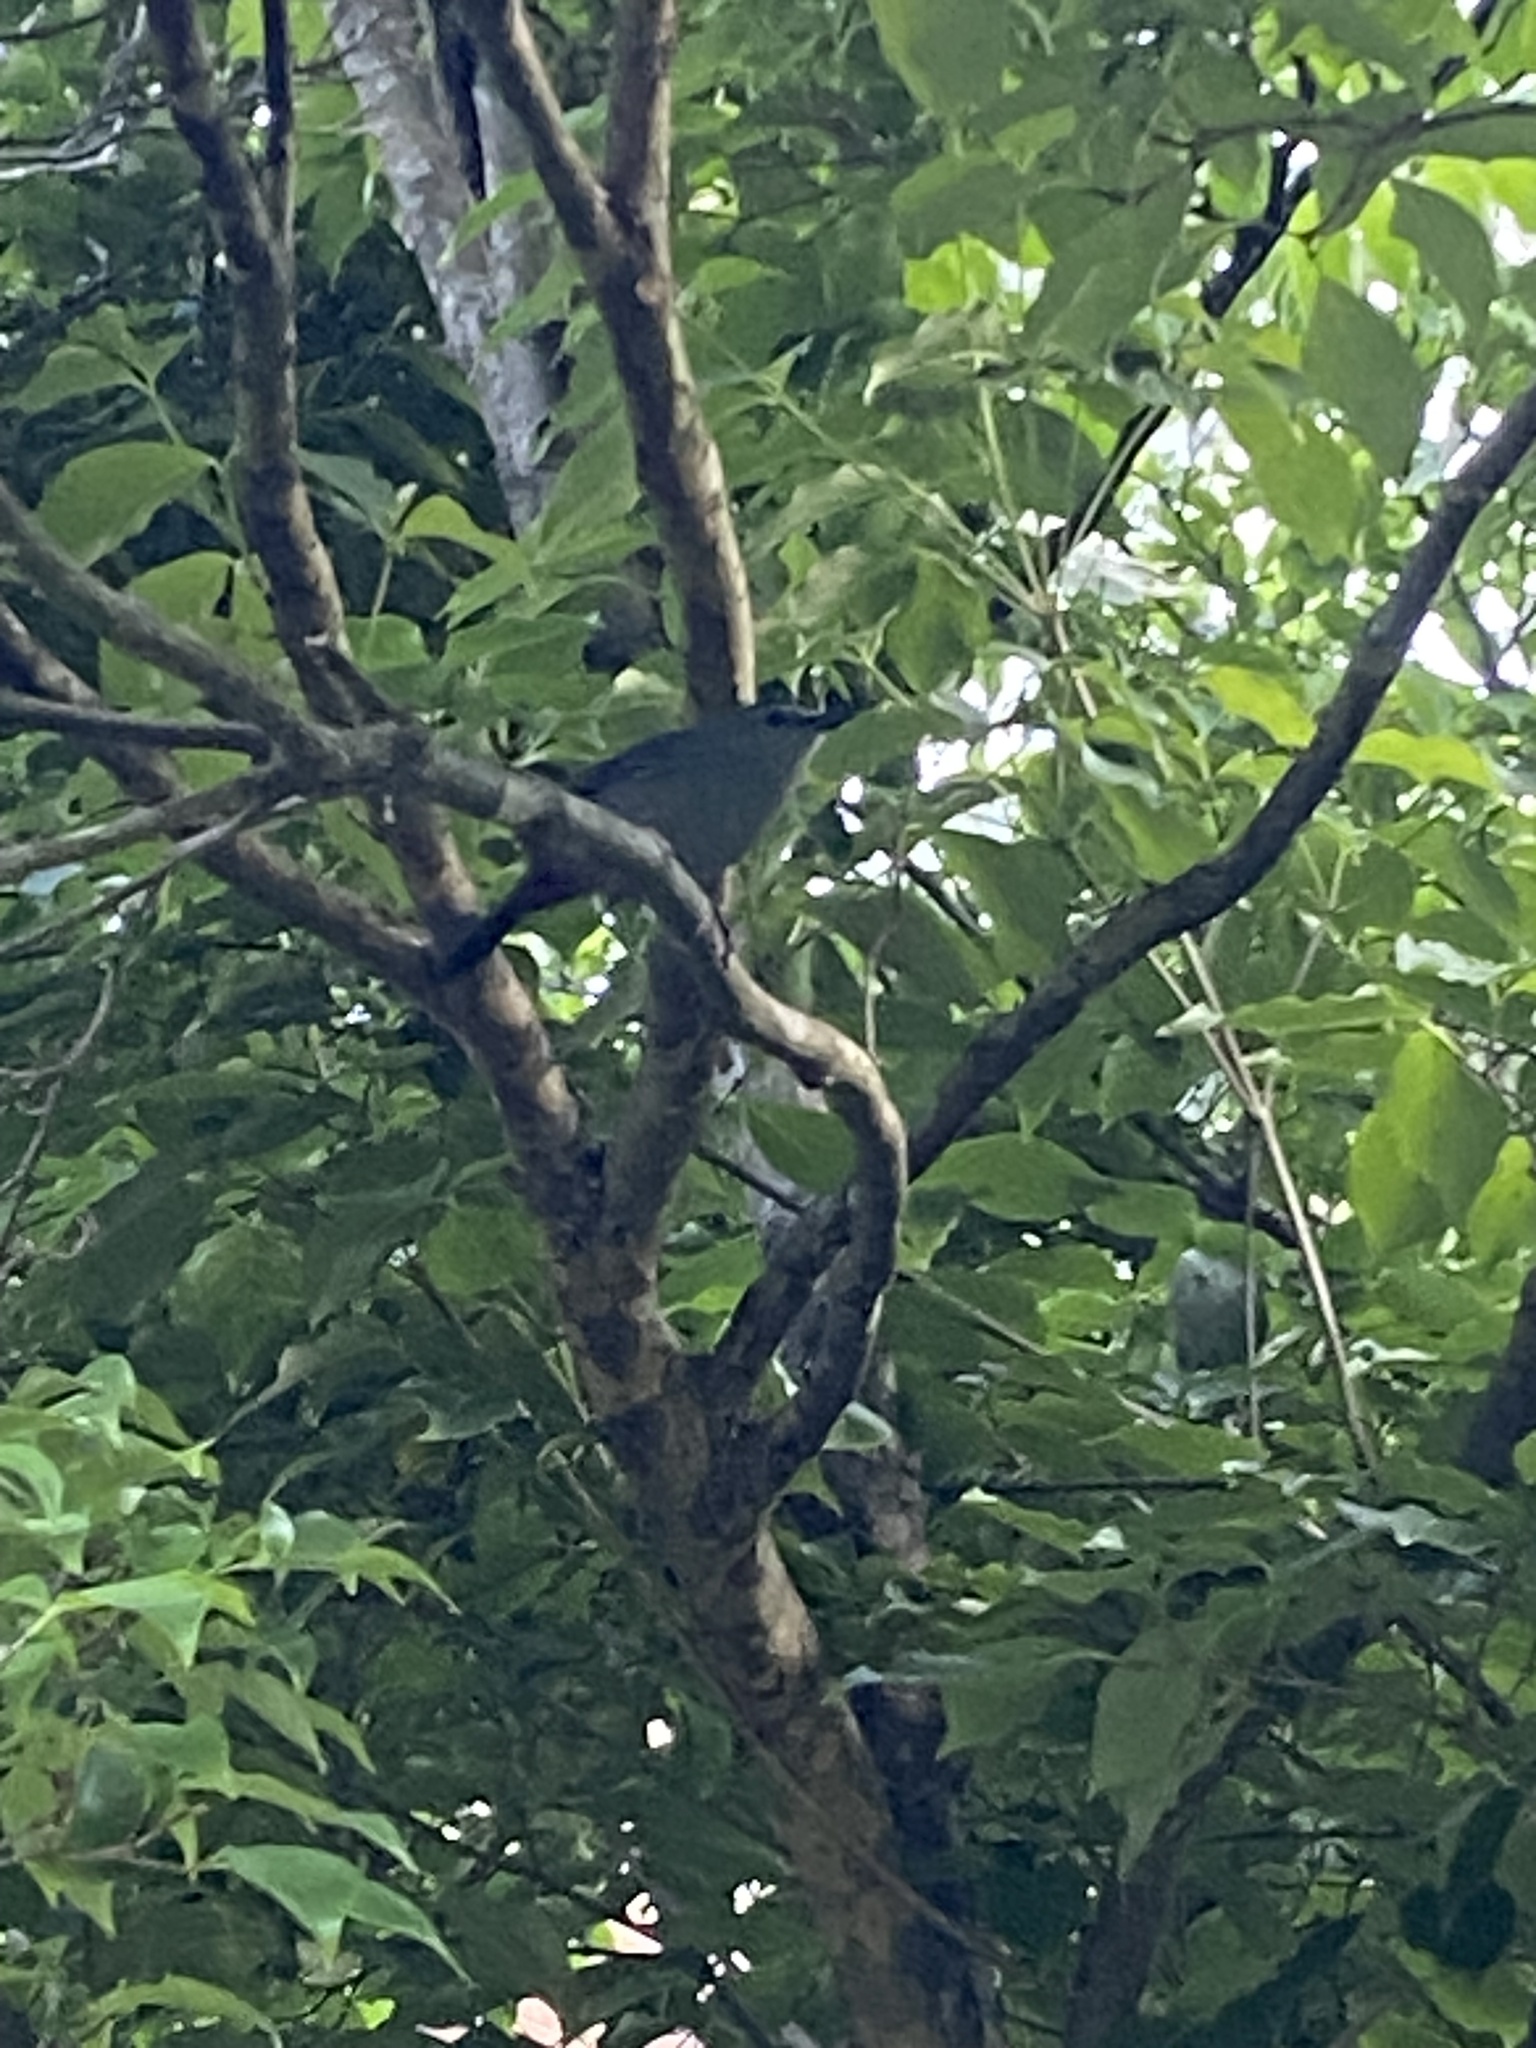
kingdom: Animalia
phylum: Chordata
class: Aves
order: Passeriformes
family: Mimidae
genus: Dumetella
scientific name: Dumetella carolinensis
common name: Gray catbird
